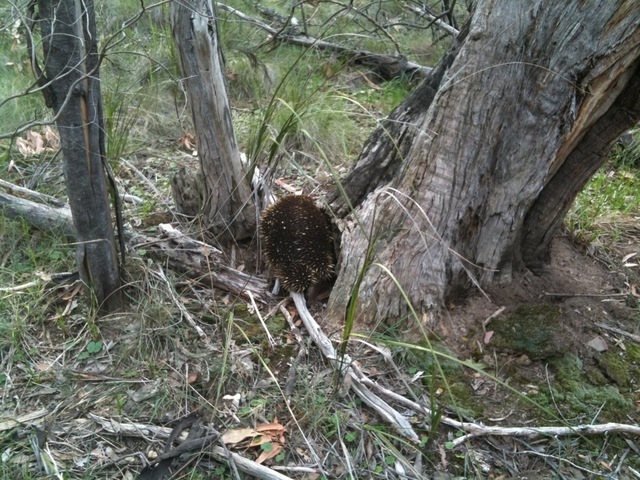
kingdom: Animalia
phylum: Chordata
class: Mammalia
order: Monotremata
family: Tachyglossidae
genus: Tachyglossus
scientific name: Tachyglossus aculeatus
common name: Short-beaked echidna
